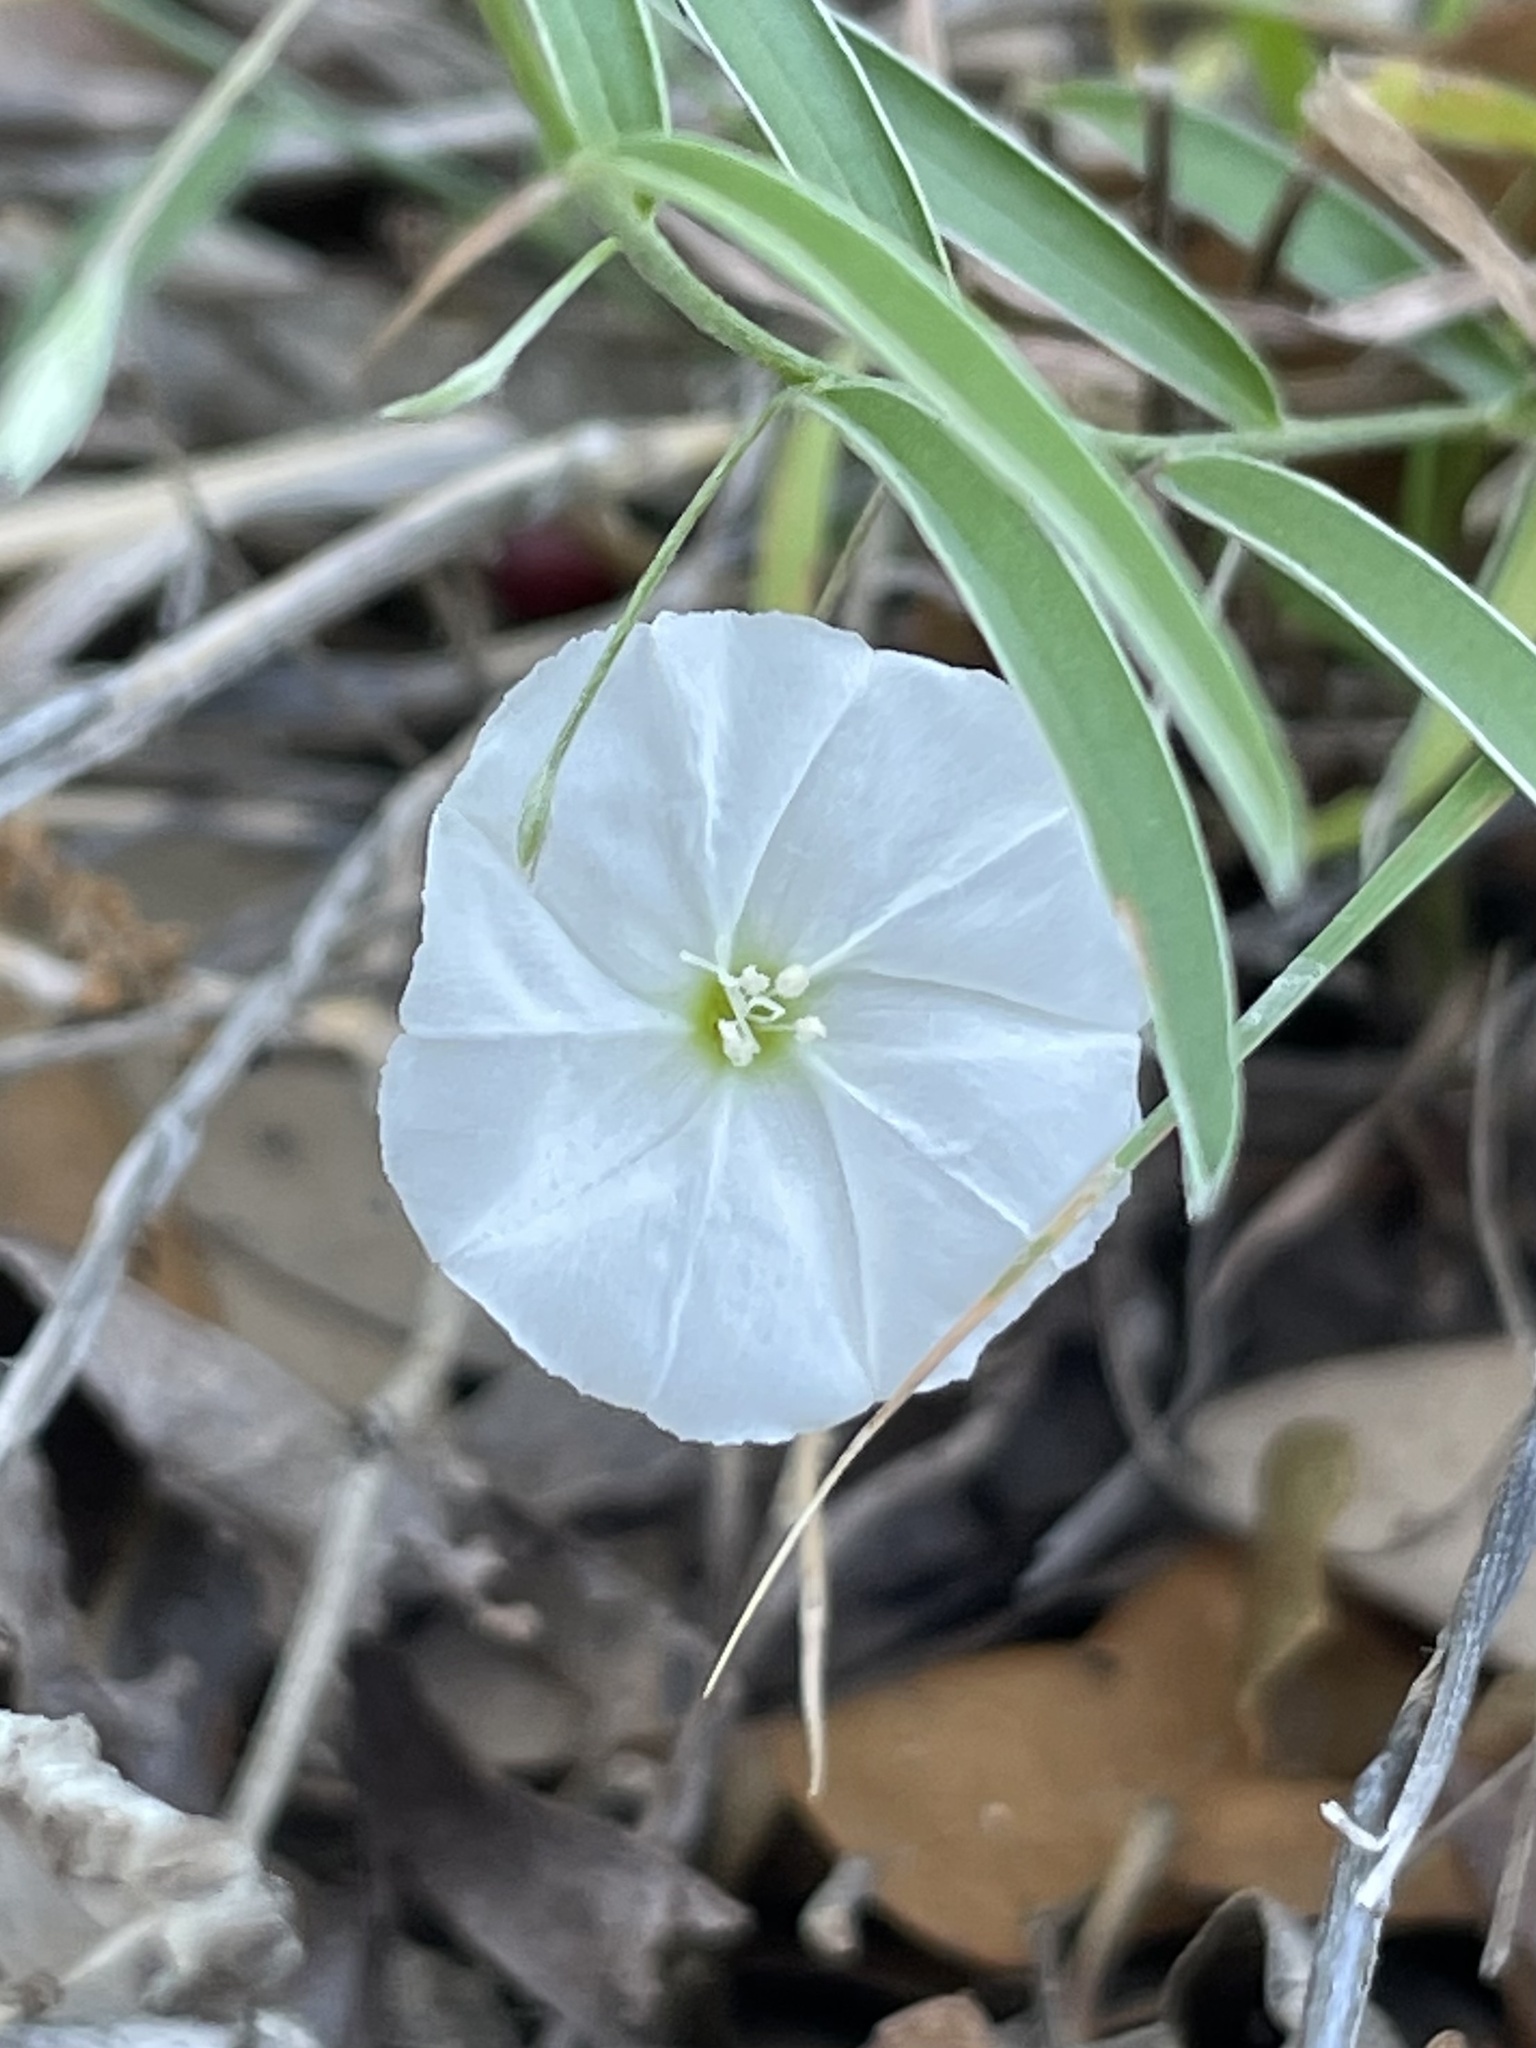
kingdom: Plantae
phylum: Tracheophyta
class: Magnoliopsida
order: Solanales
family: Convolvulaceae
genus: Evolvulus
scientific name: Evolvulus sericeus
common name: Blue dots
